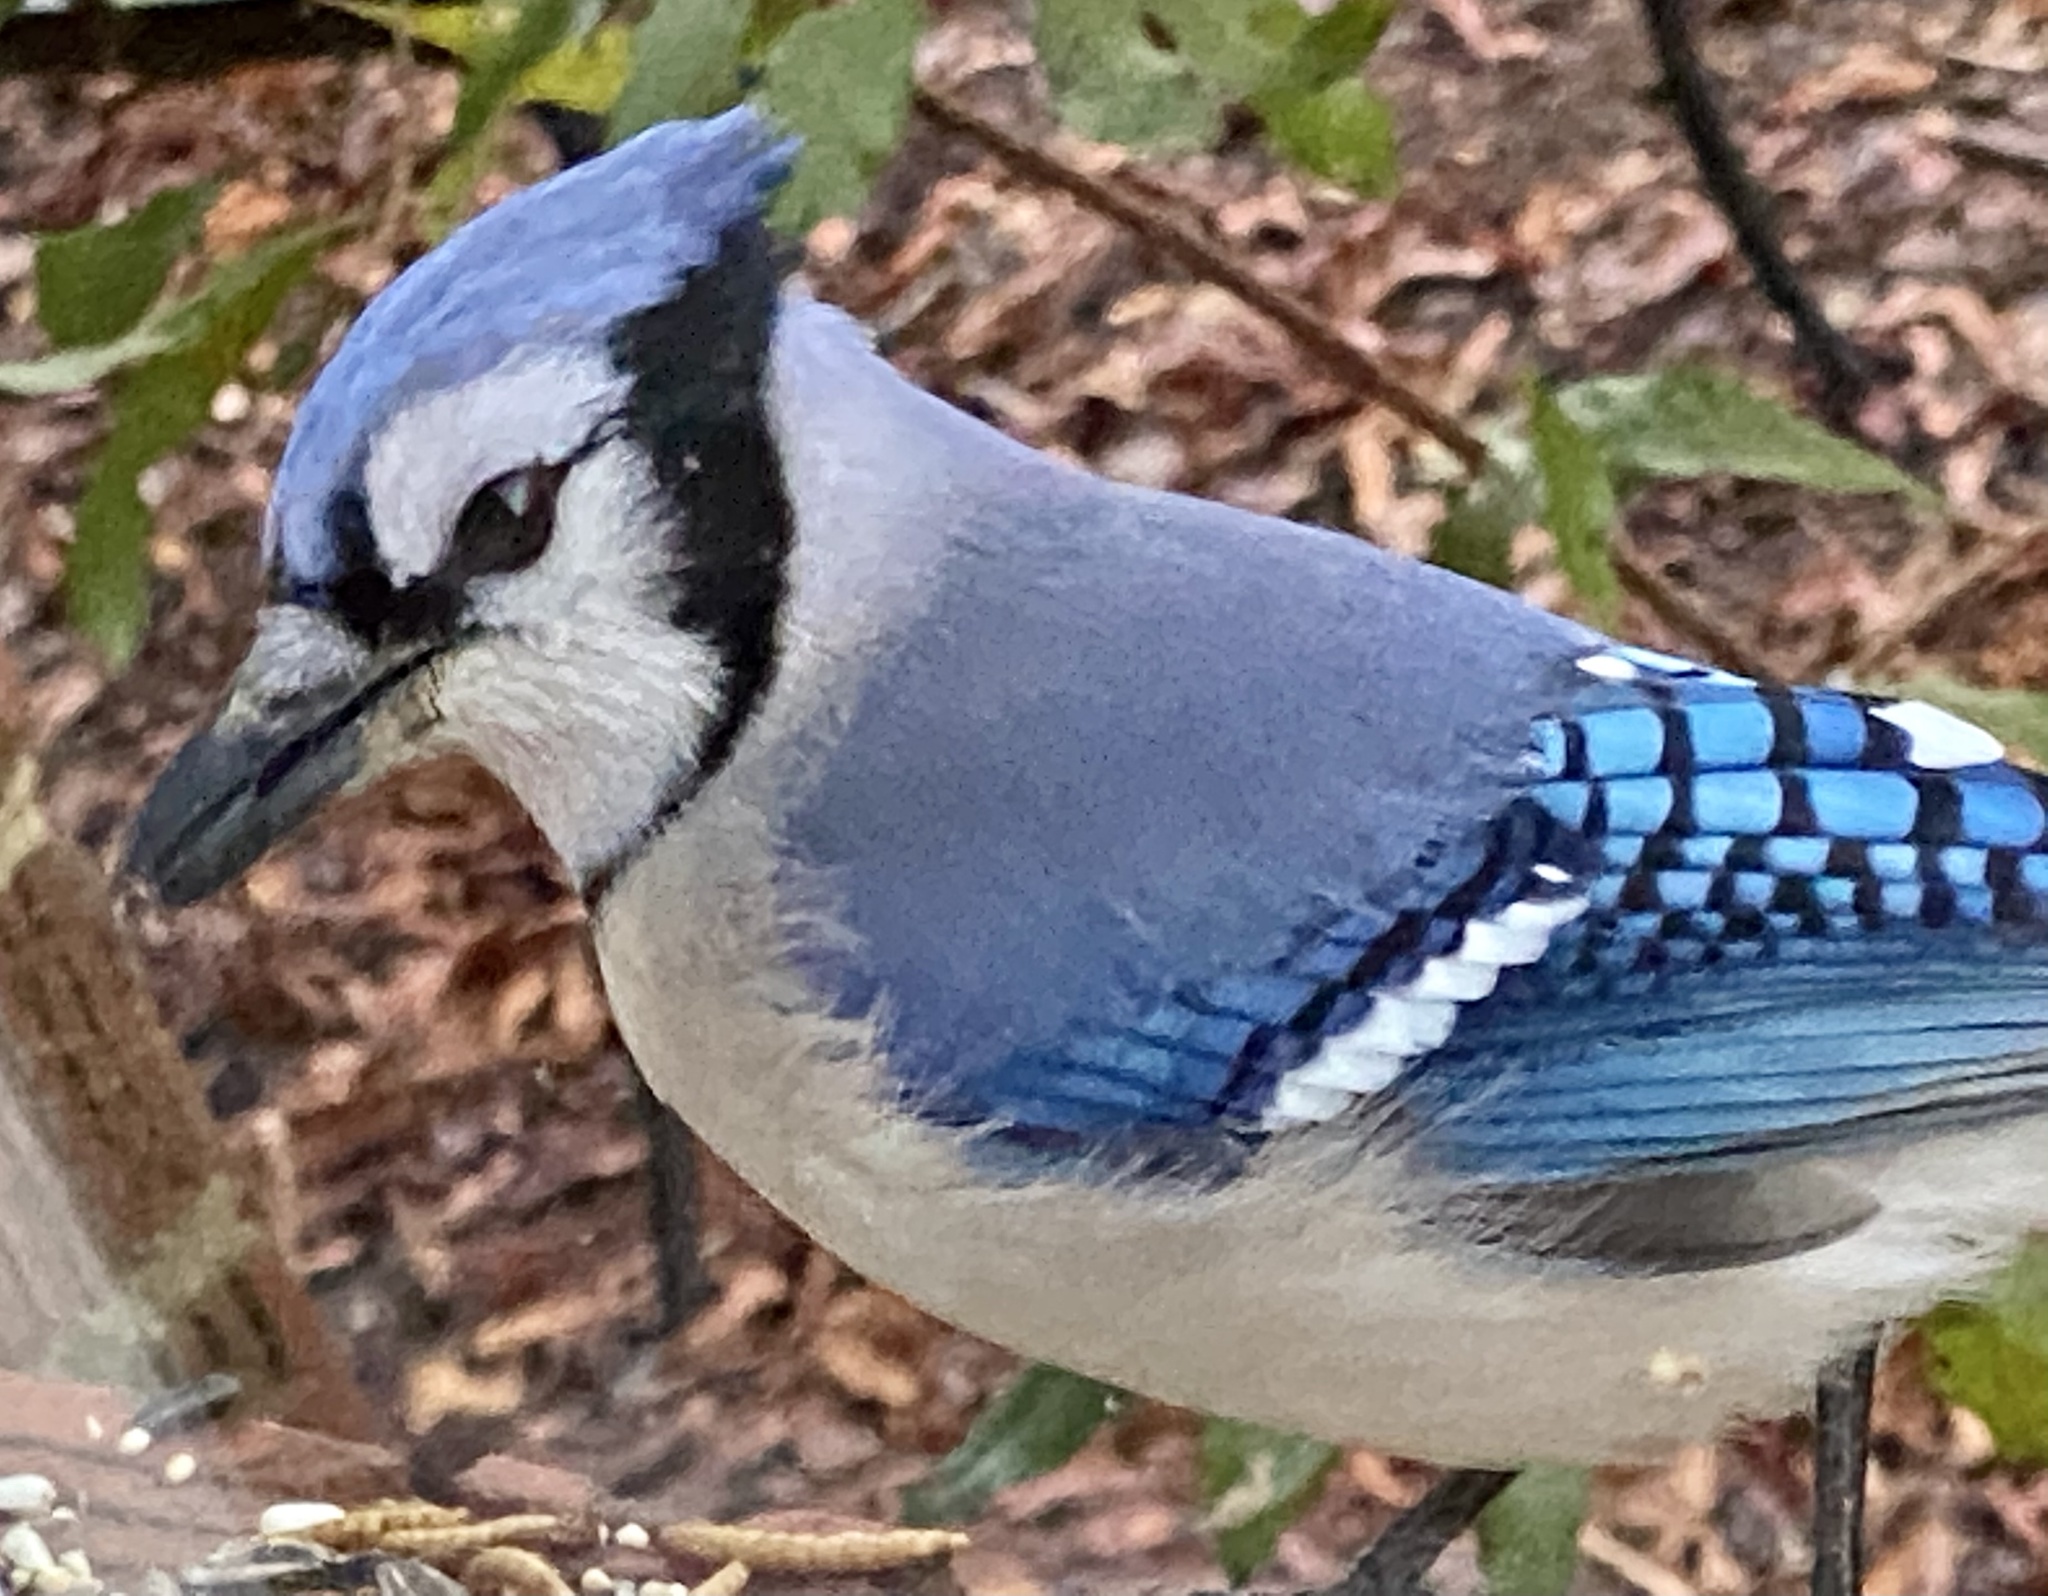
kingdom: Animalia
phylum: Chordata
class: Aves
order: Passeriformes
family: Corvidae
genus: Cyanocitta
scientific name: Cyanocitta cristata
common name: Blue jay
